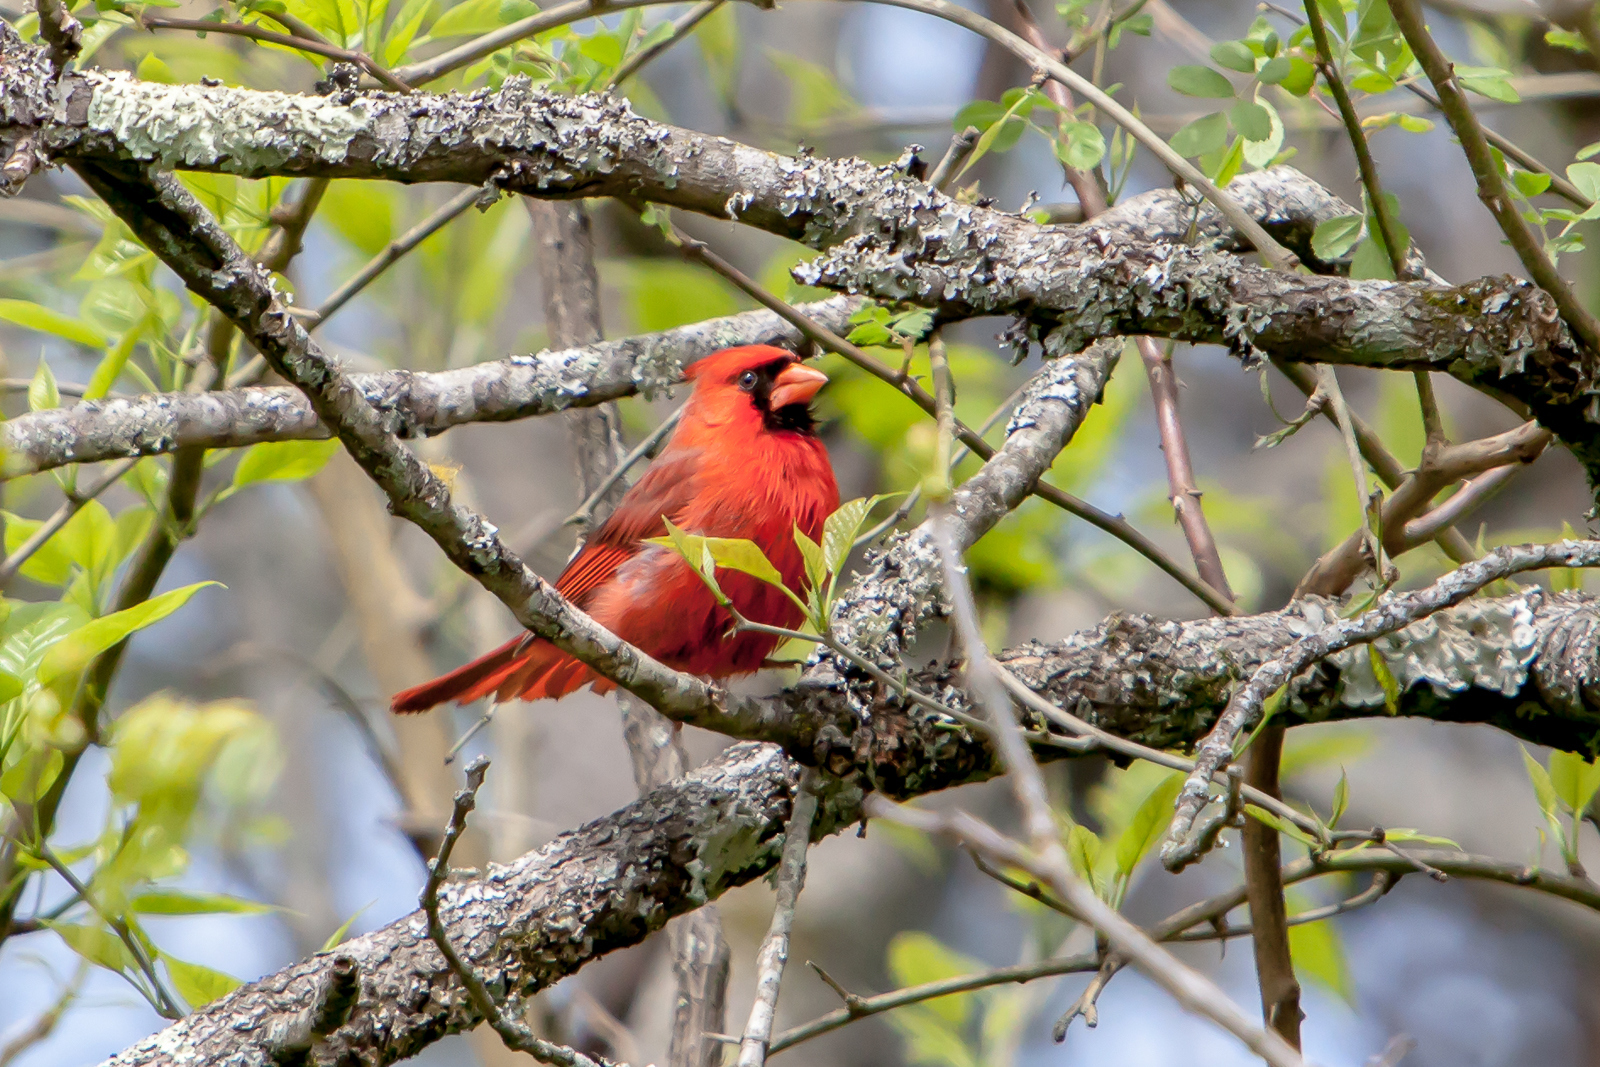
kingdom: Animalia
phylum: Chordata
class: Aves
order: Passeriformes
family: Cardinalidae
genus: Cardinalis
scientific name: Cardinalis cardinalis
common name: Northern cardinal
